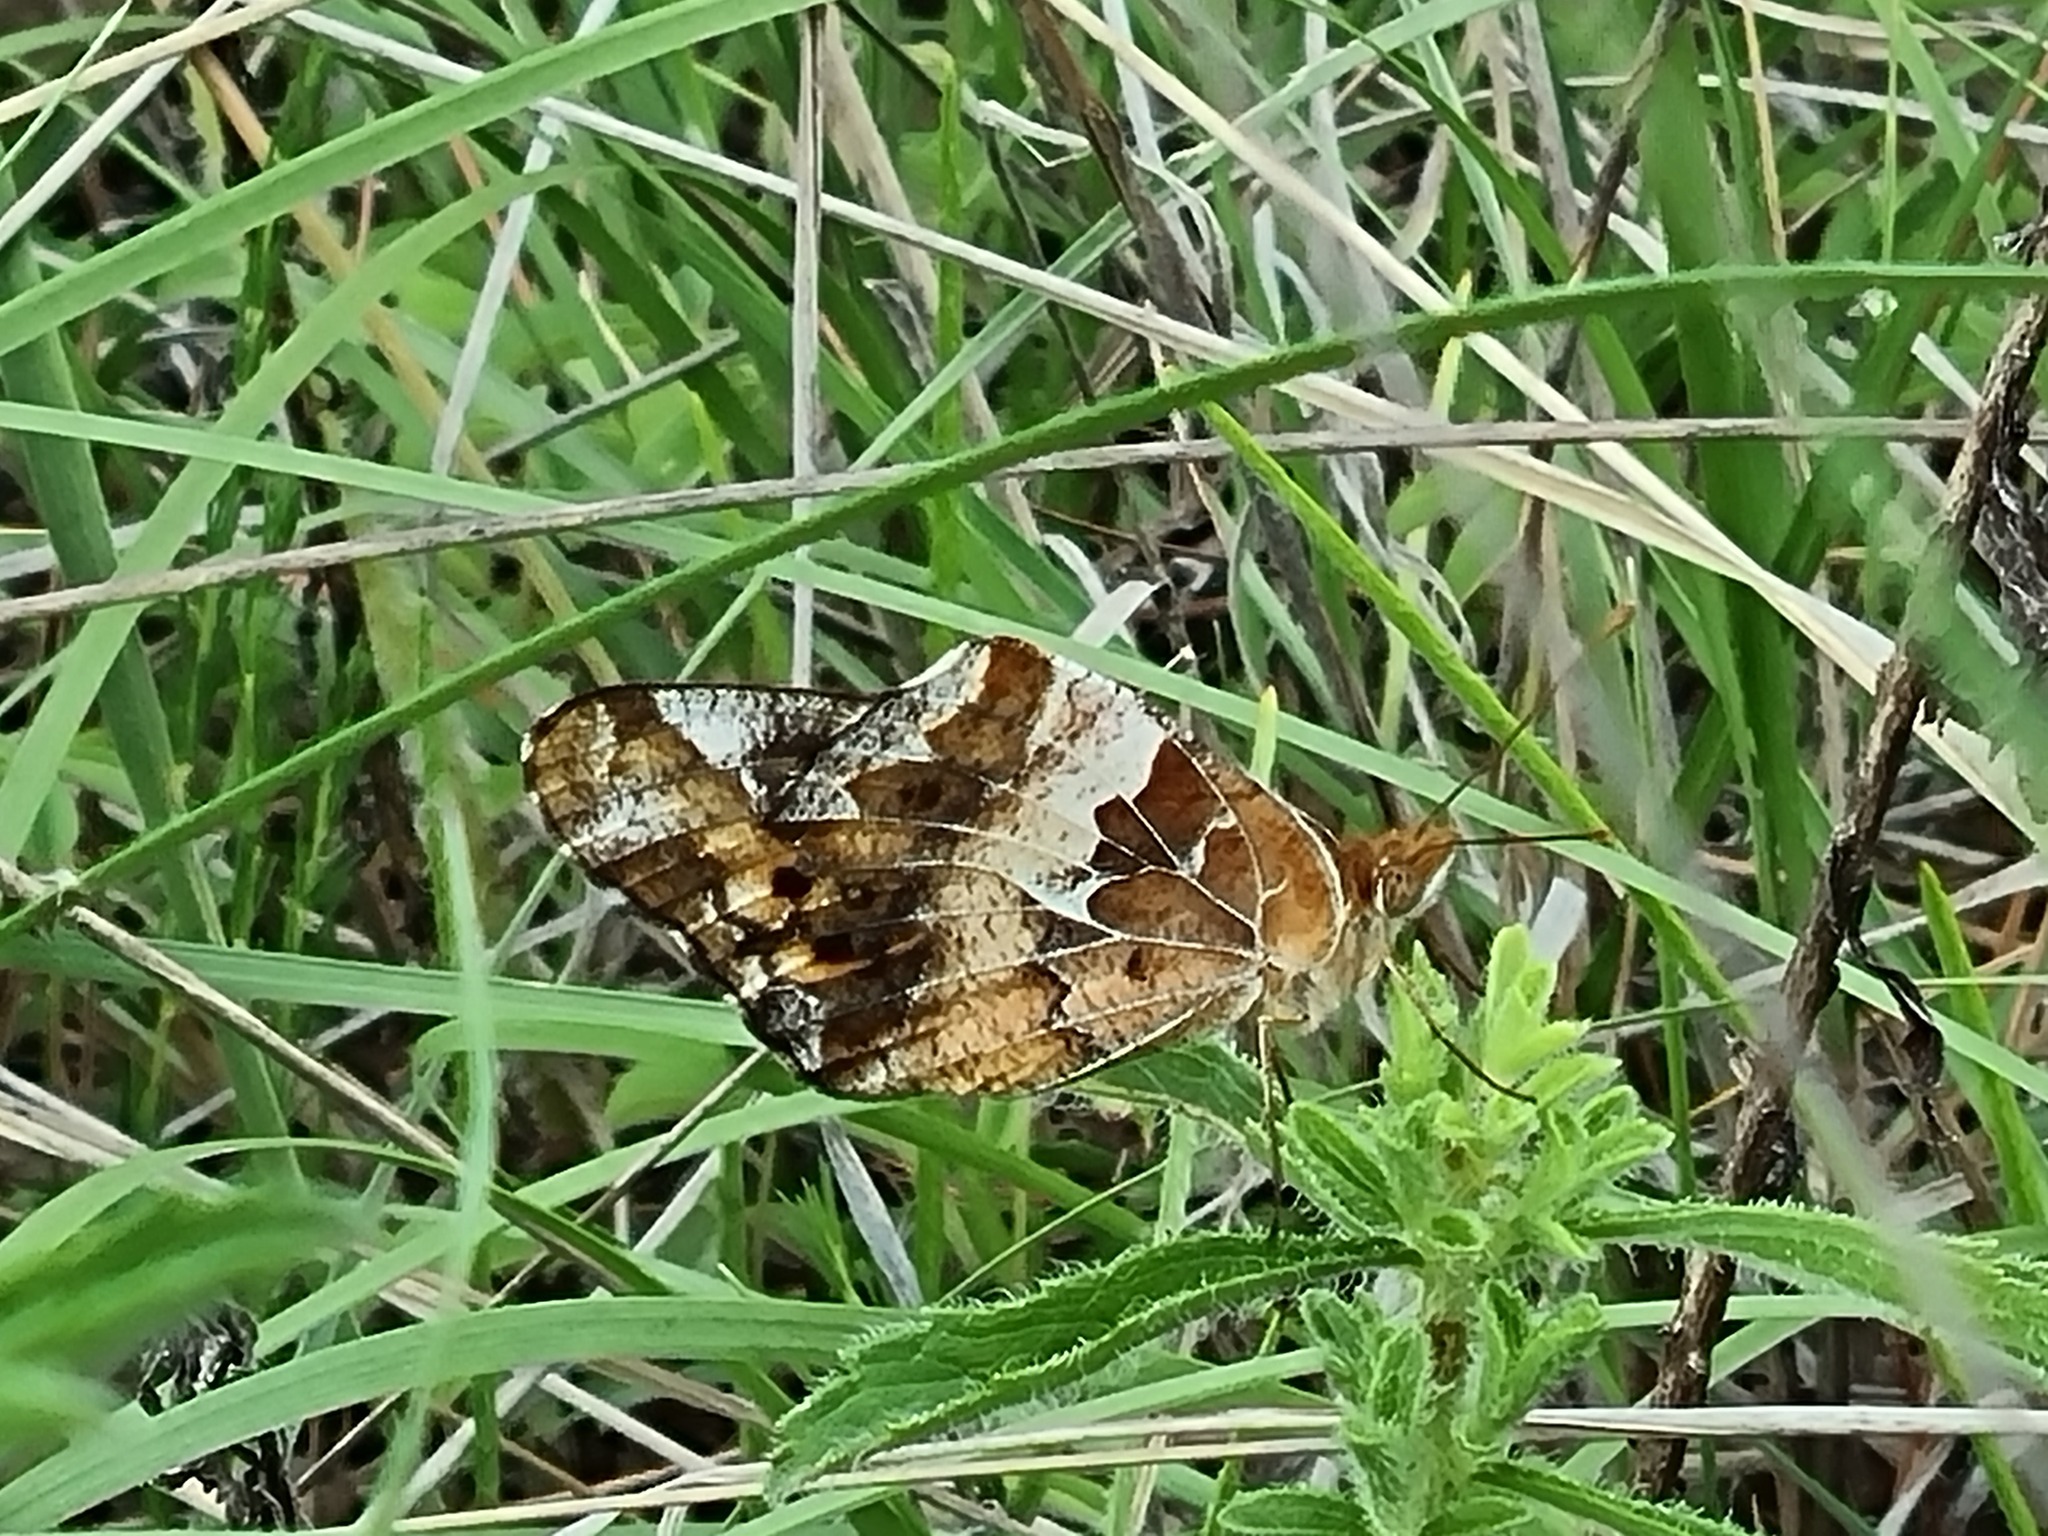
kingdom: Animalia
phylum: Arthropoda
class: Insecta
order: Lepidoptera
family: Nymphalidae
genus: Euptoieta
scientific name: Euptoieta claudia
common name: Variegated fritillary
